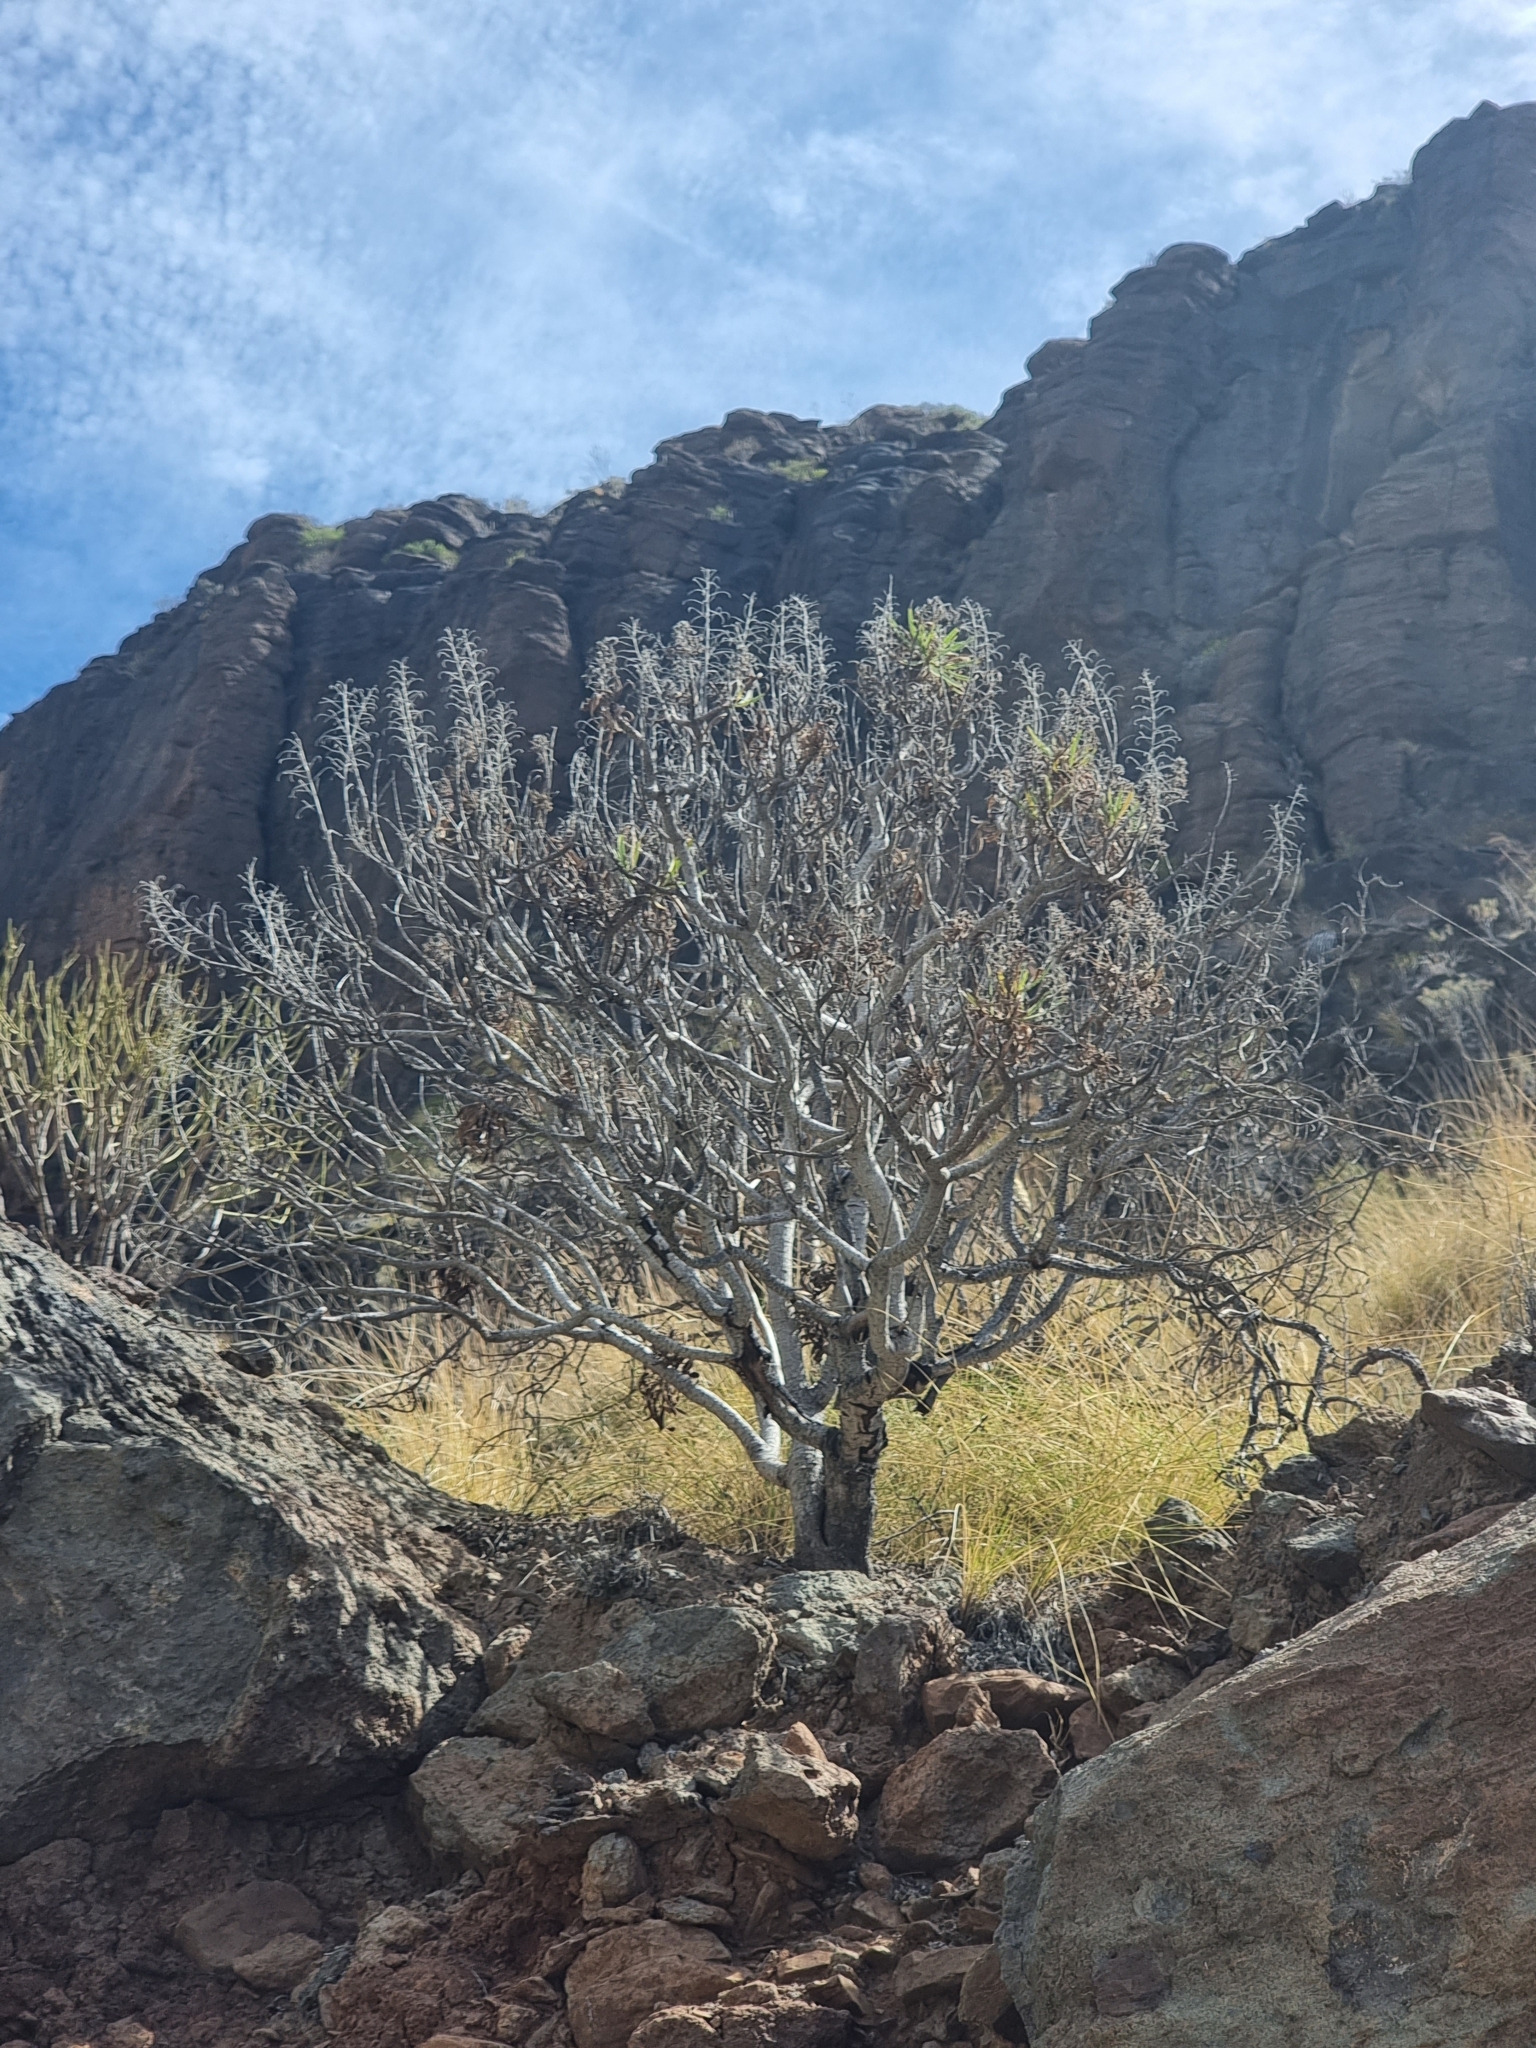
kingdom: Plantae
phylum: Tracheophyta
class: Magnoliopsida
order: Boraginales
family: Boraginaceae
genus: Echium
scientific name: Echium onosmifolium
